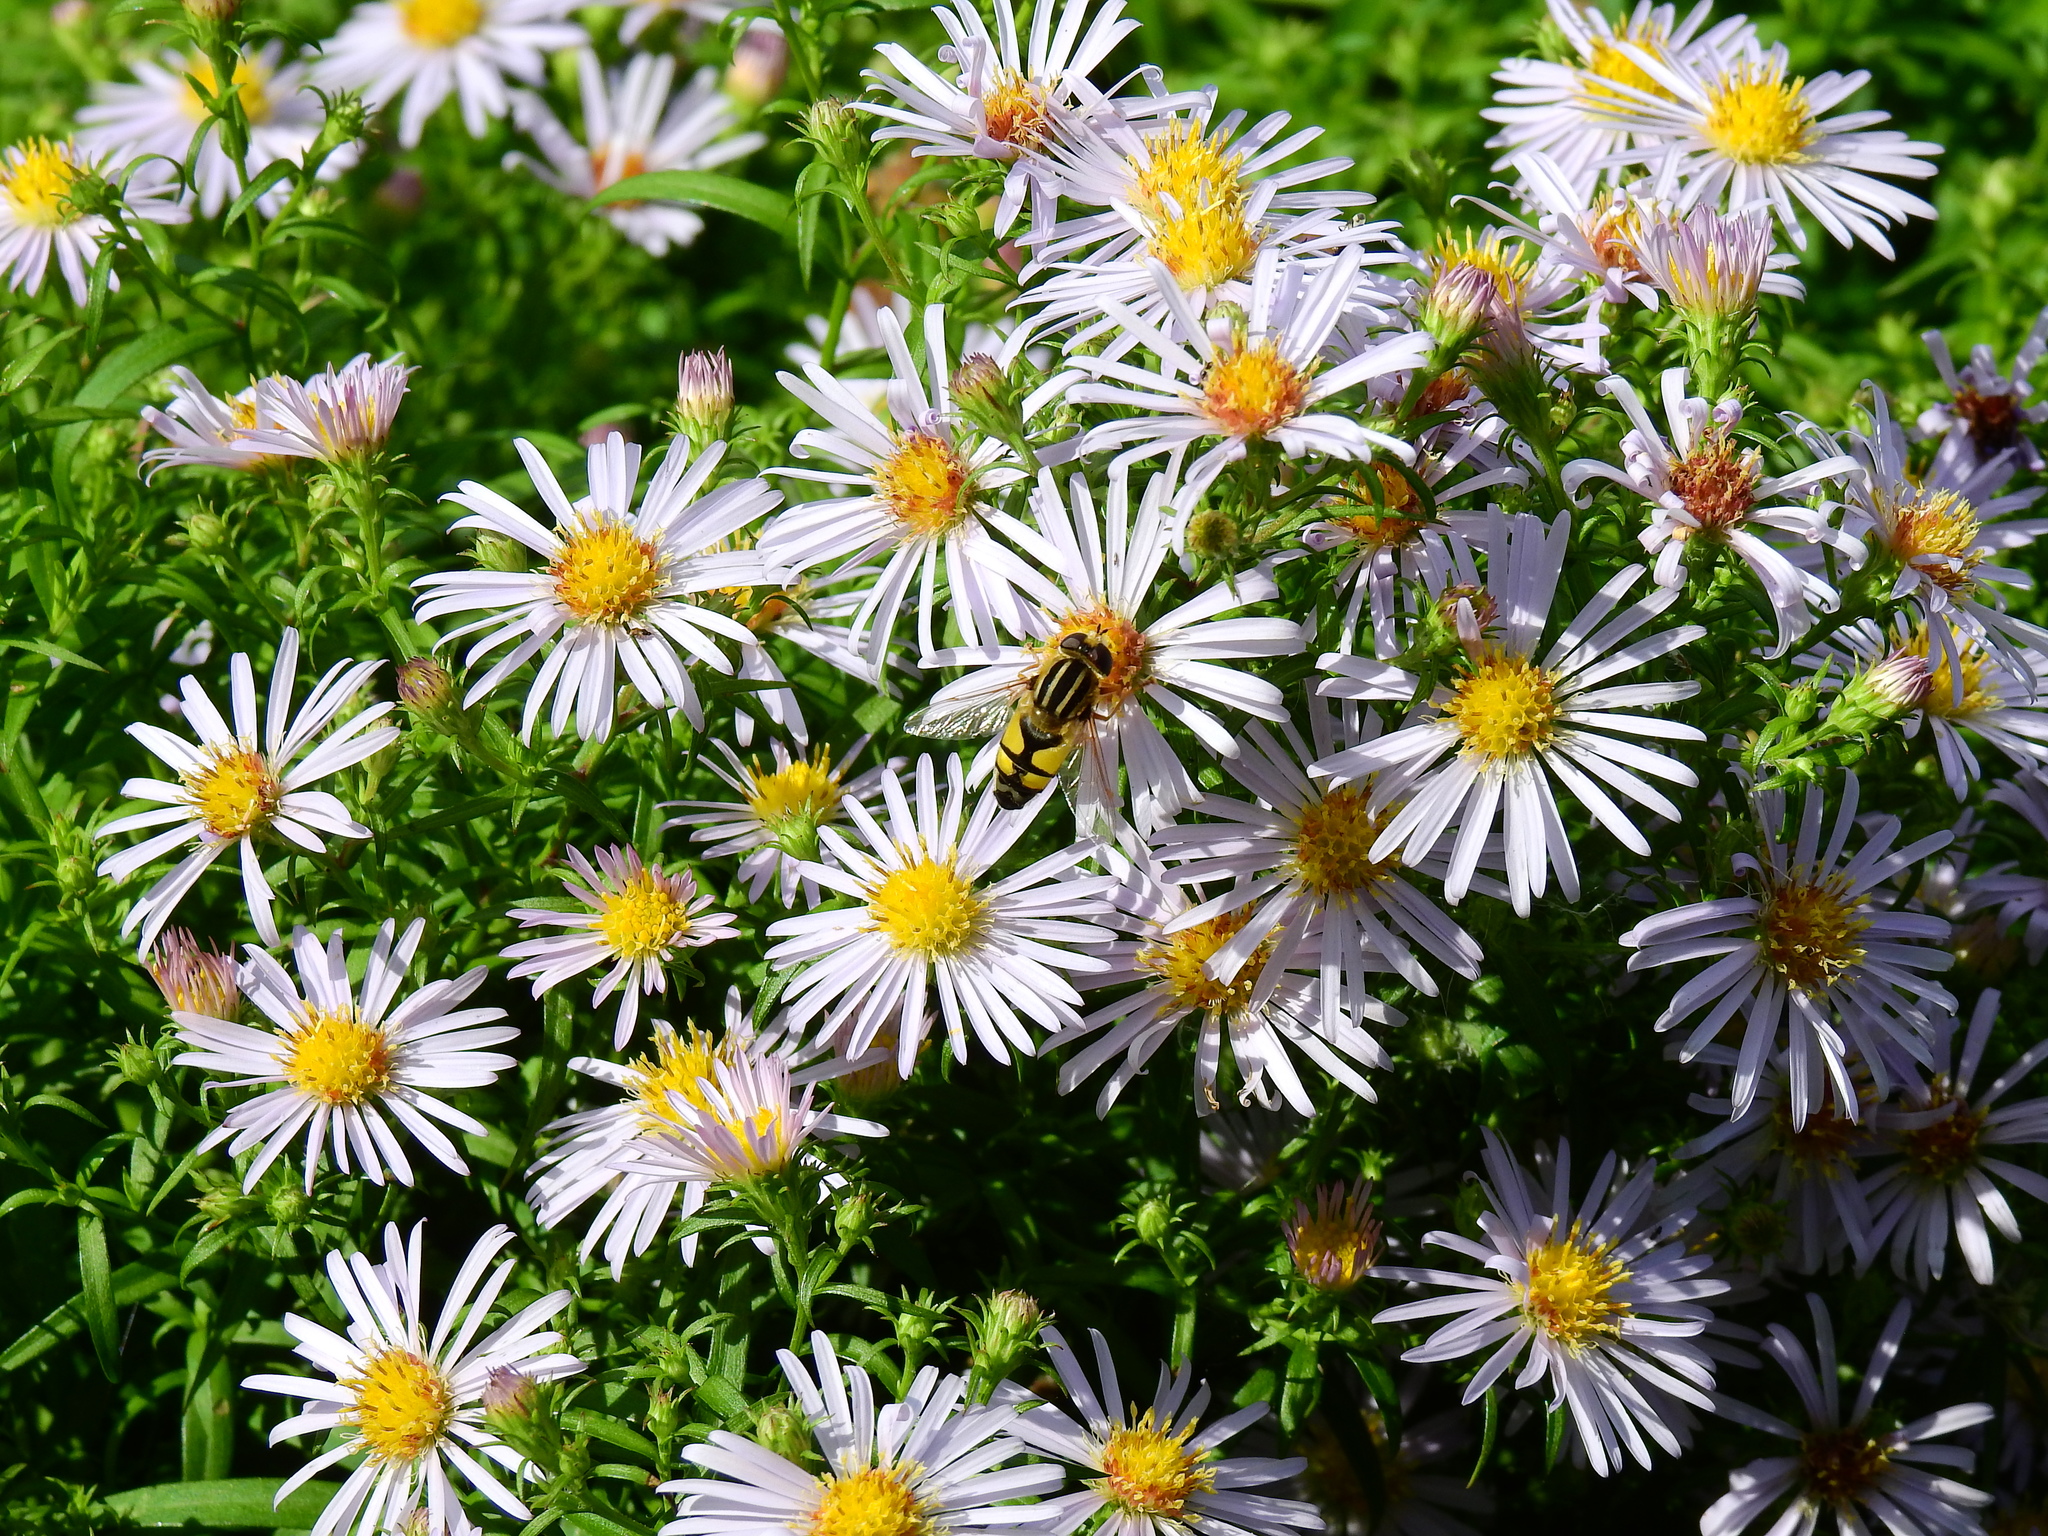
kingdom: Animalia
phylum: Arthropoda
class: Insecta
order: Diptera
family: Syrphidae
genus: Helophilus
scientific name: Helophilus trivittatus
